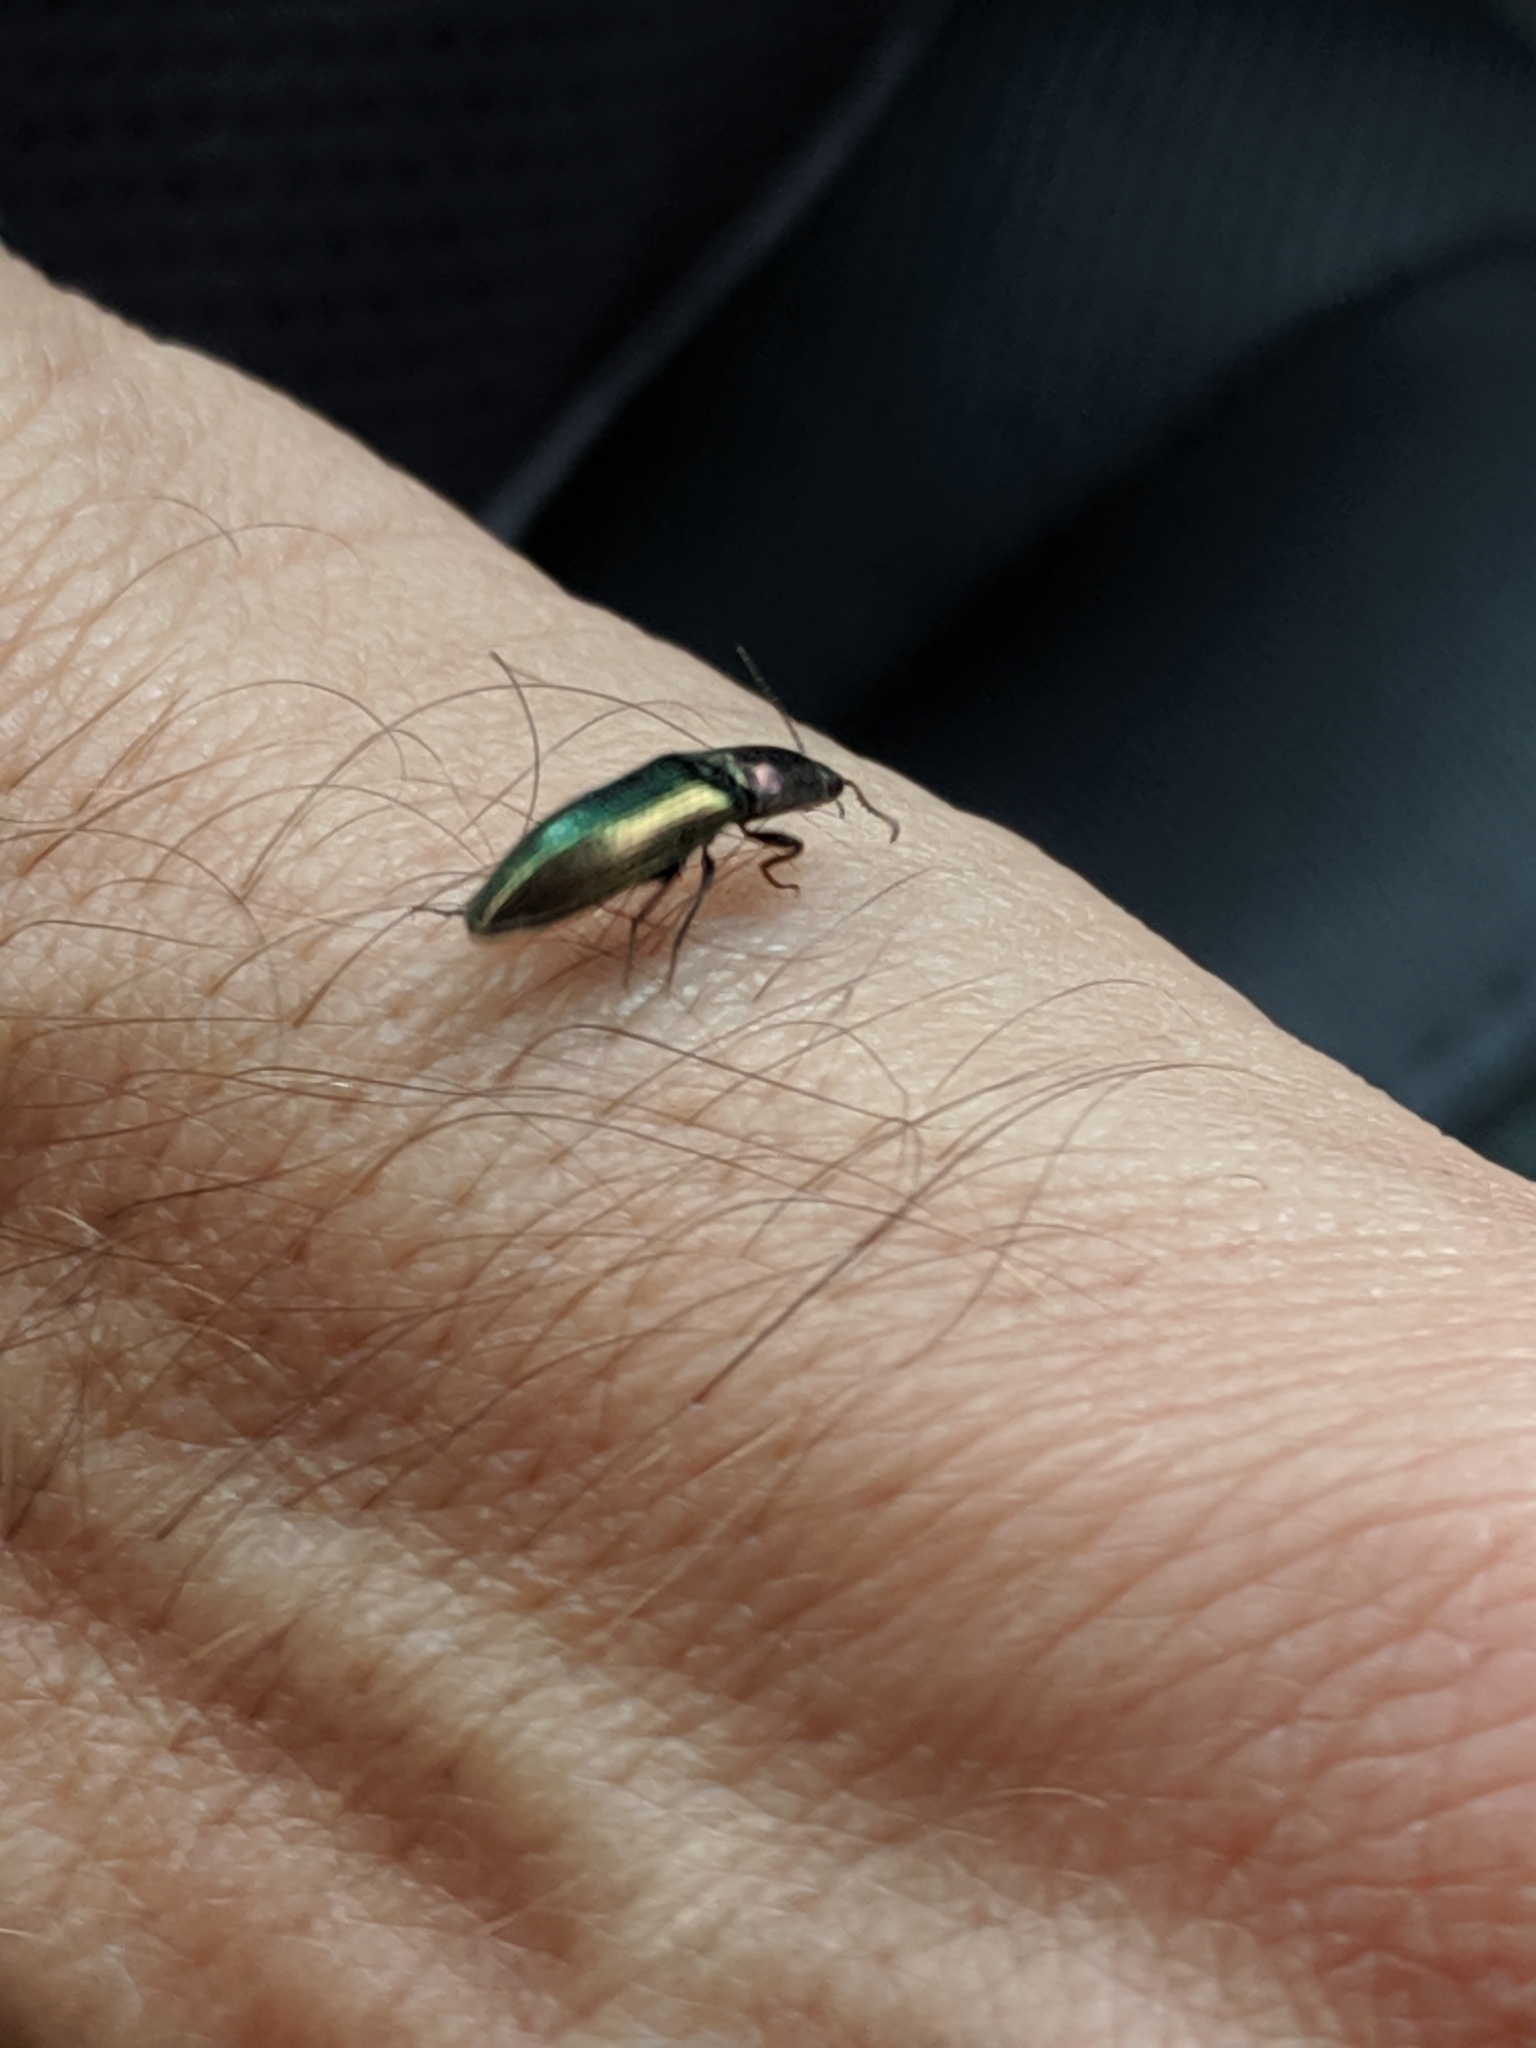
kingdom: Animalia
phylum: Arthropoda
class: Insecta
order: Coleoptera
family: Elateridae
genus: Nitidolimonius
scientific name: Nitidolimonius resplendens
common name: Resplendent click beetle
